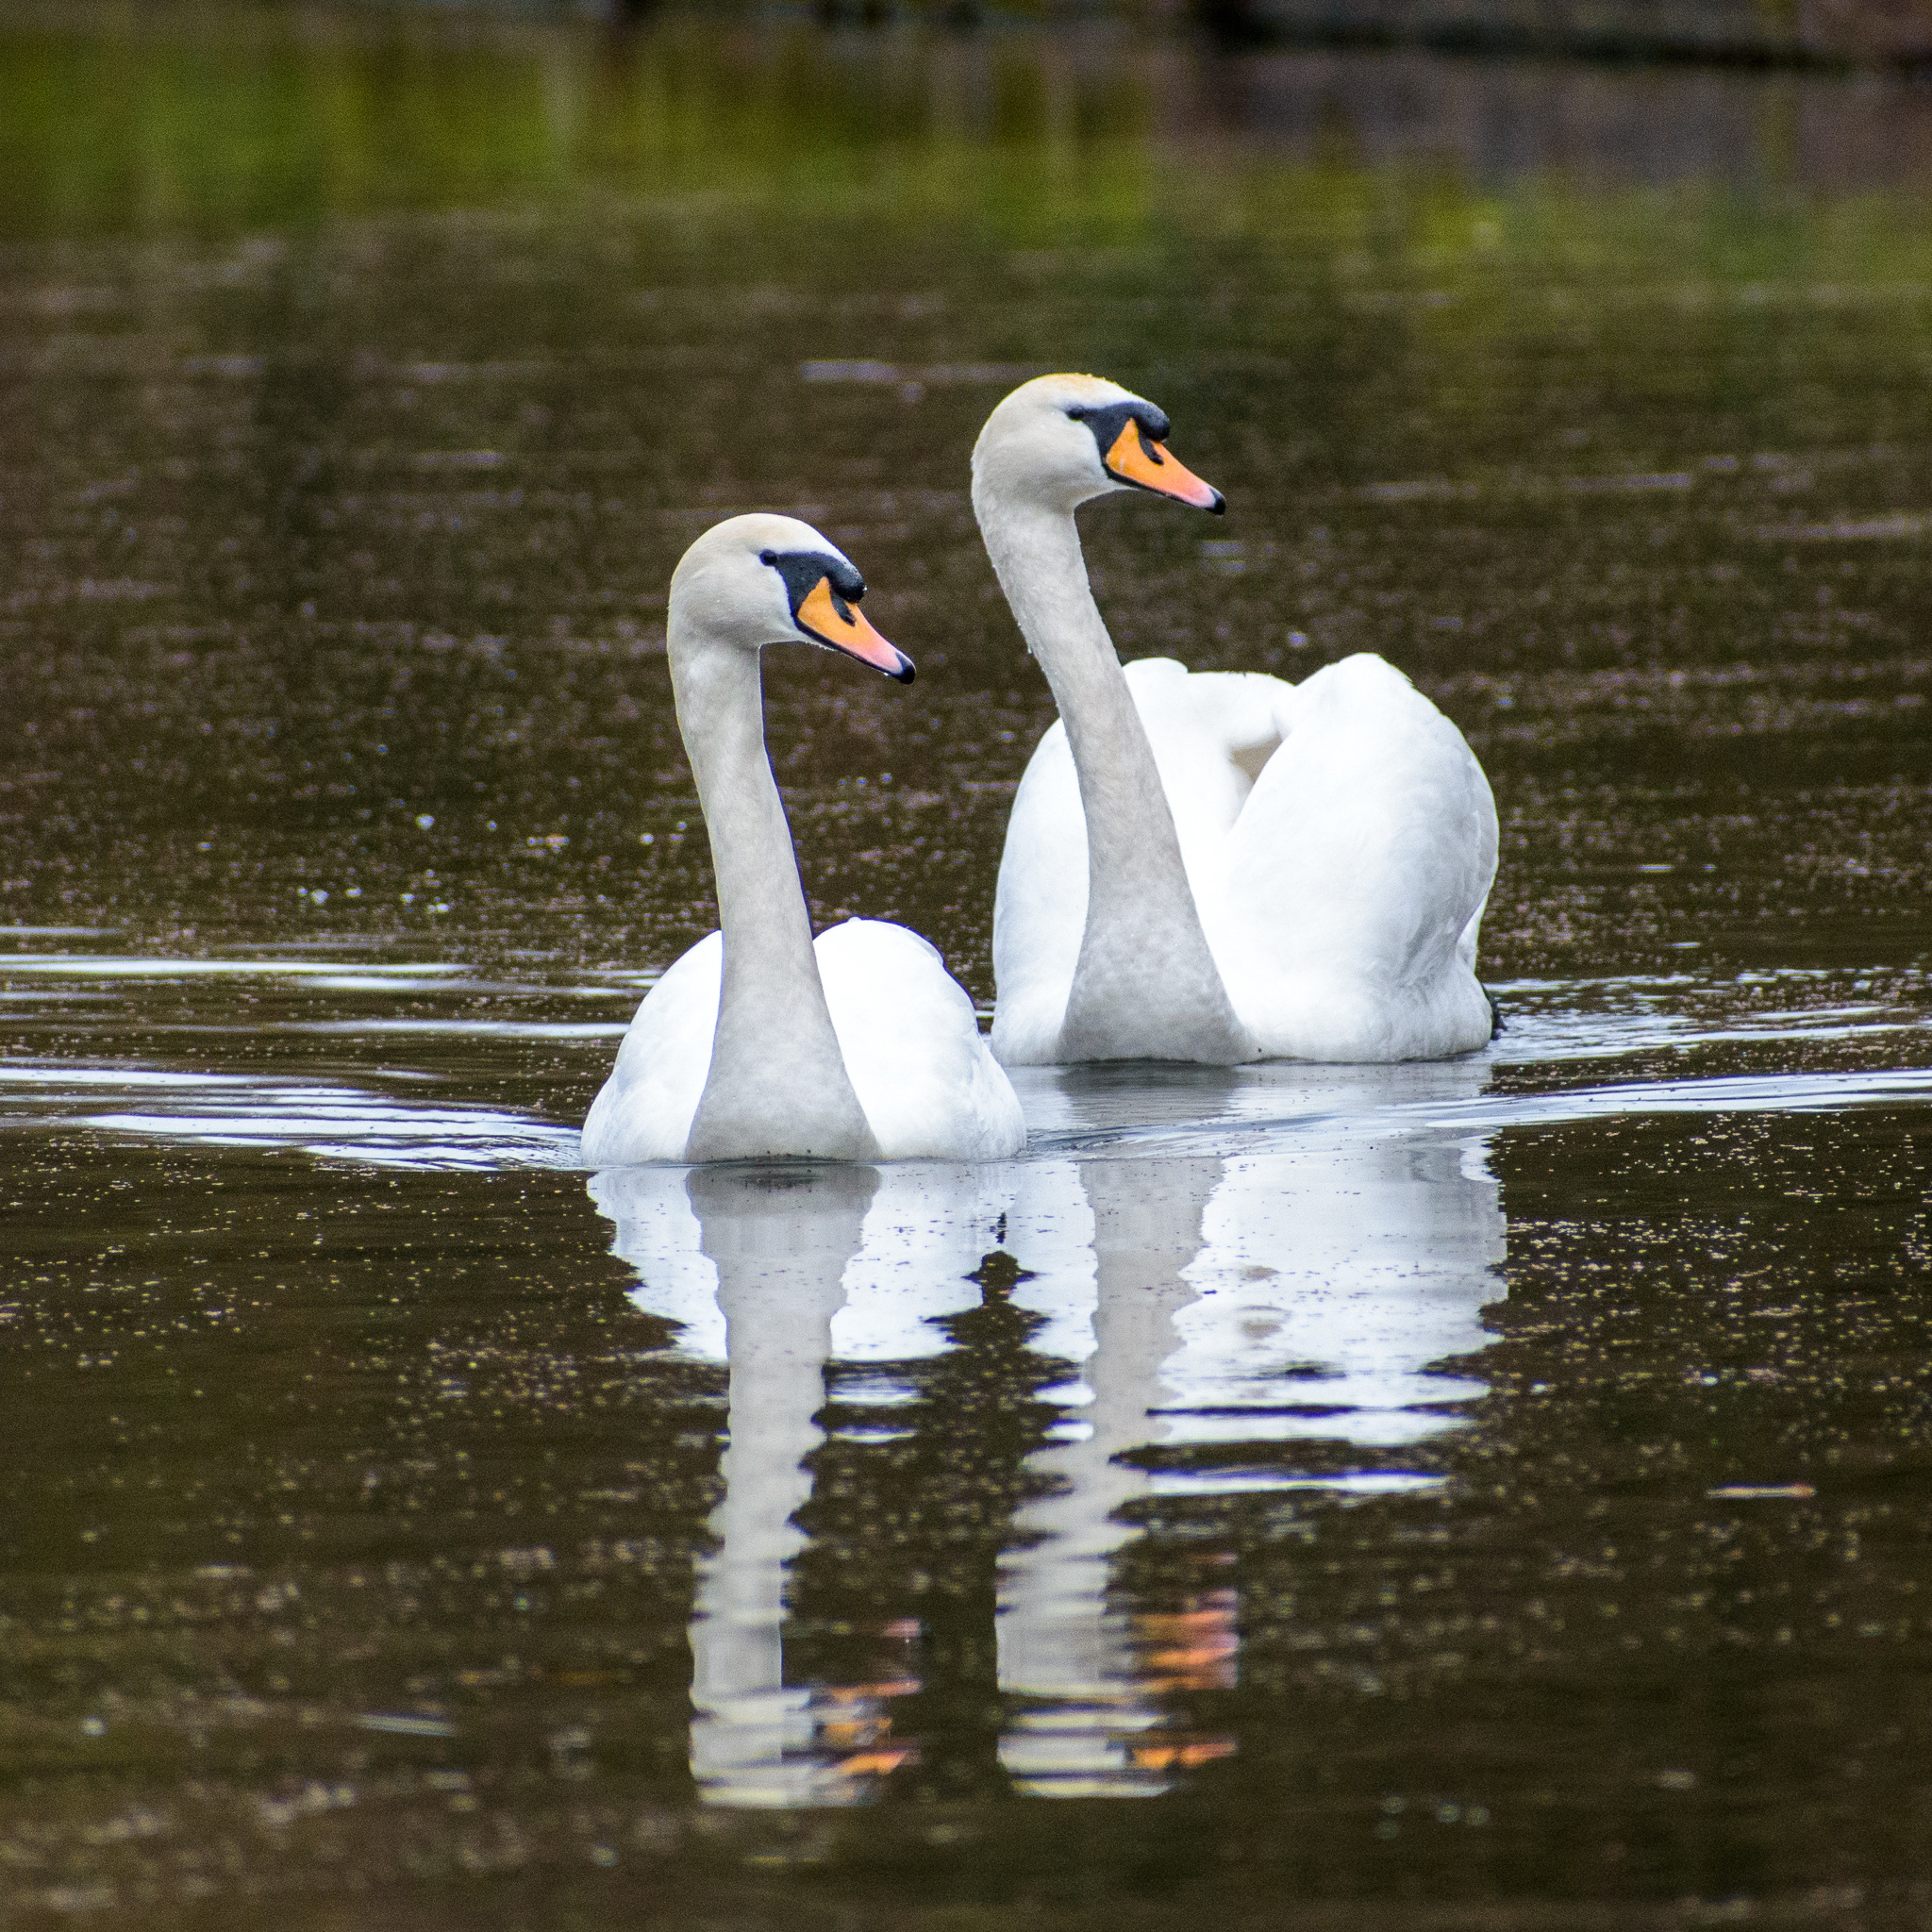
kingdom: Animalia
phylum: Chordata
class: Aves
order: Anseriformes
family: Anatidae
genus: Cygnus
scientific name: Cygnus olor
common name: Mute swan
